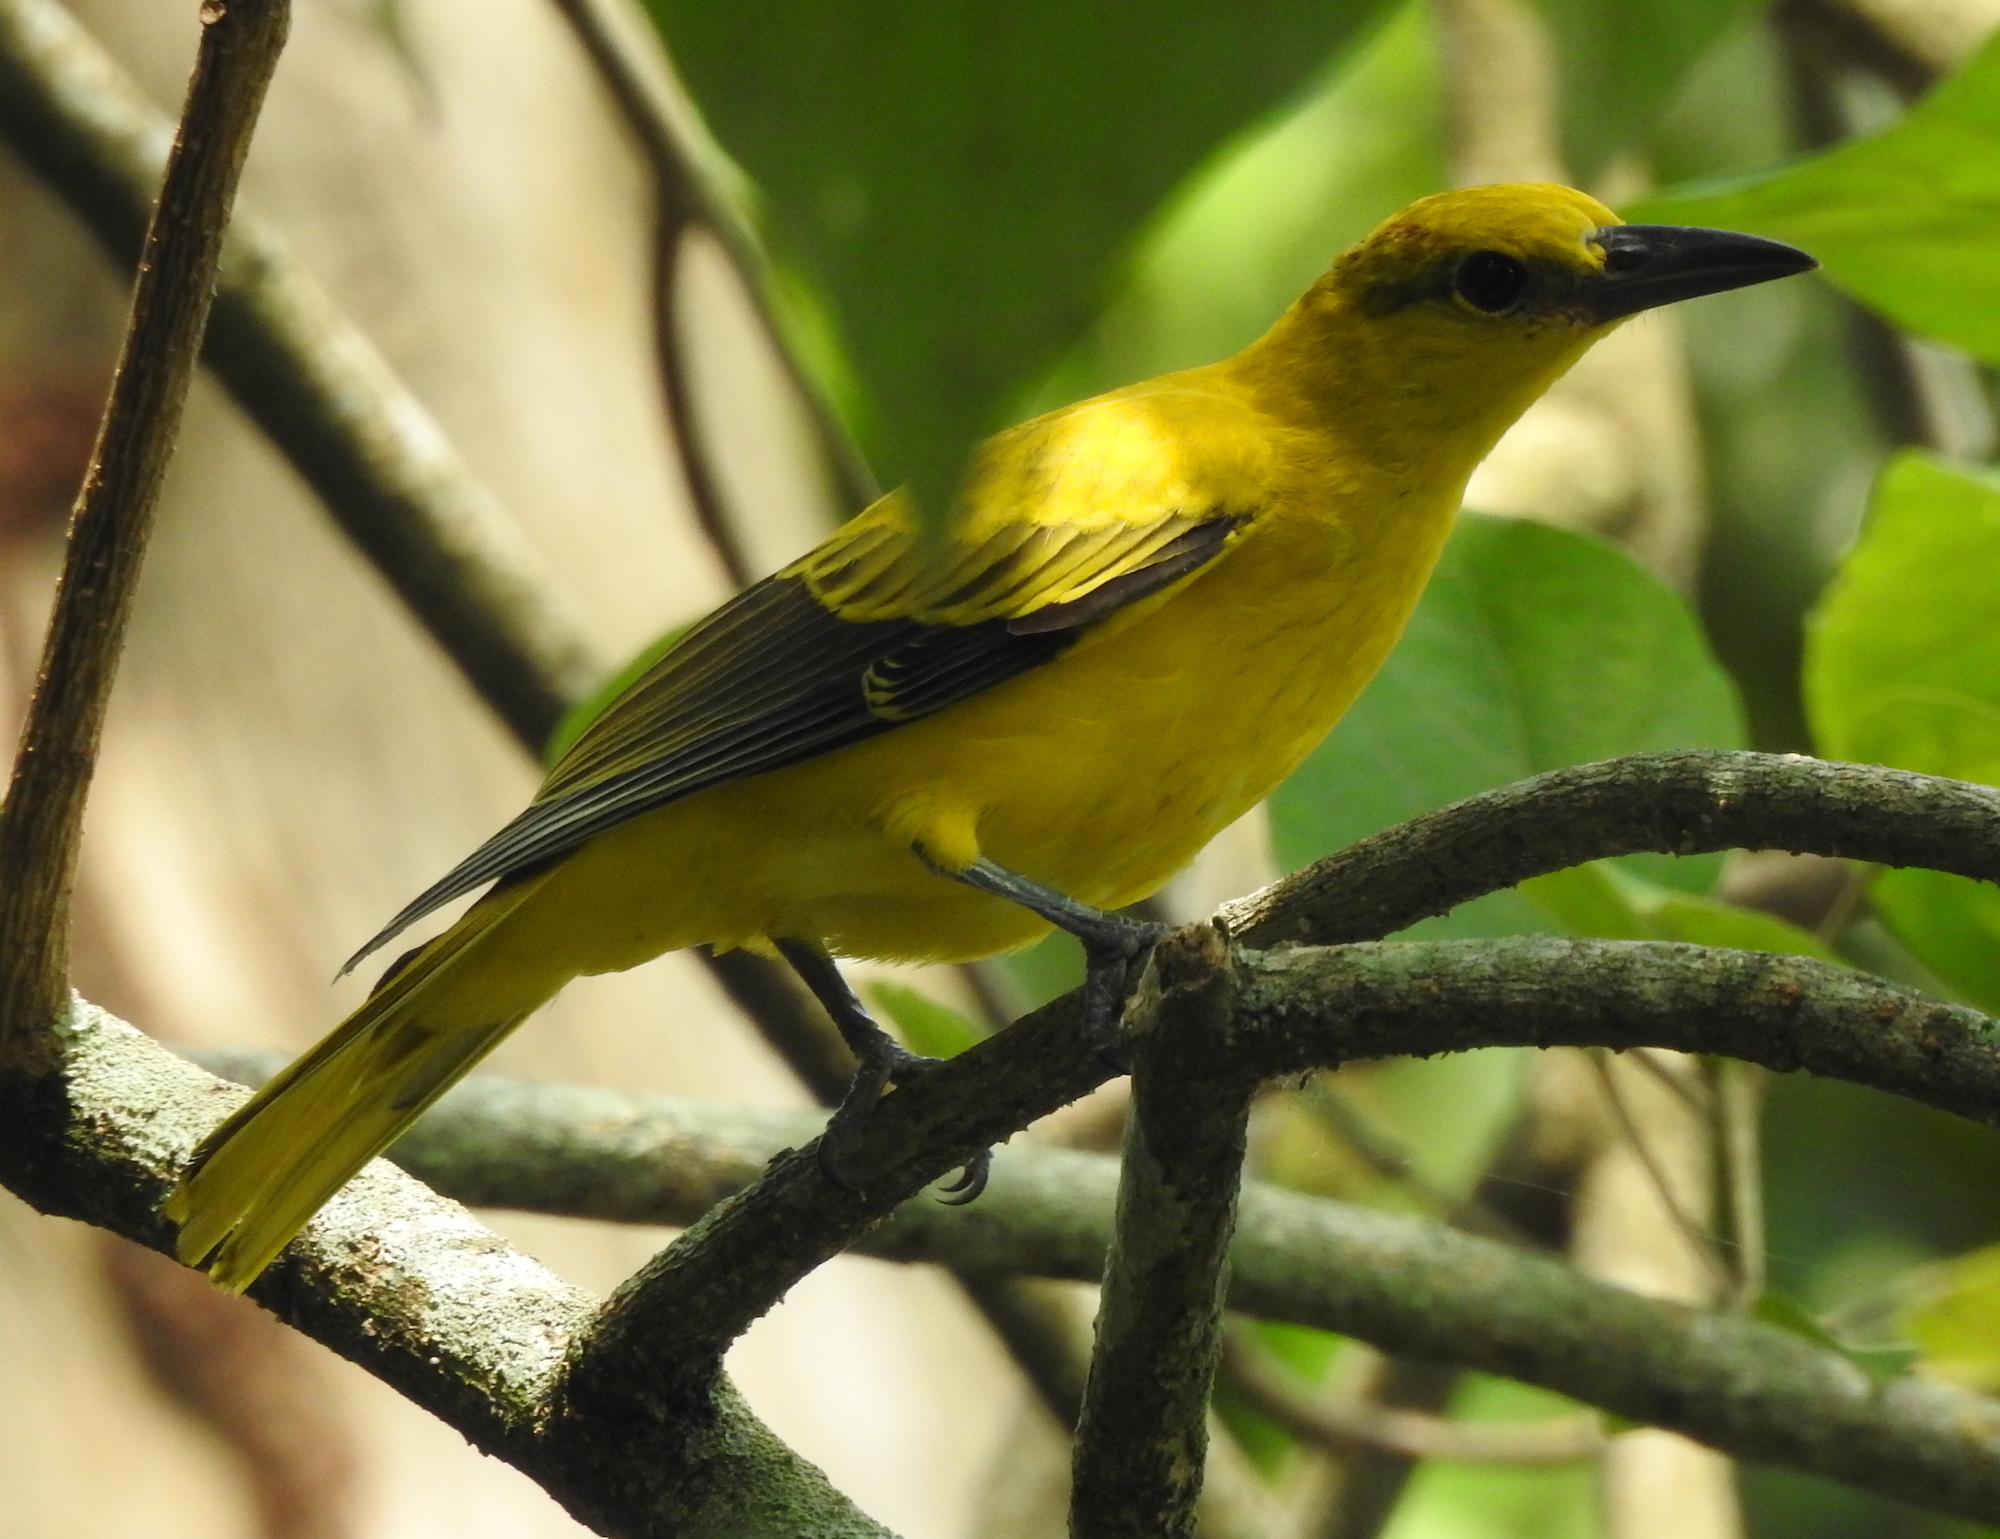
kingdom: Animalia
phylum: Chordata
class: Aves
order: Passeriformes
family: Oriolidae
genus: Oriolus
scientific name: Oriolus chinensis
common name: Black-naped oriole
